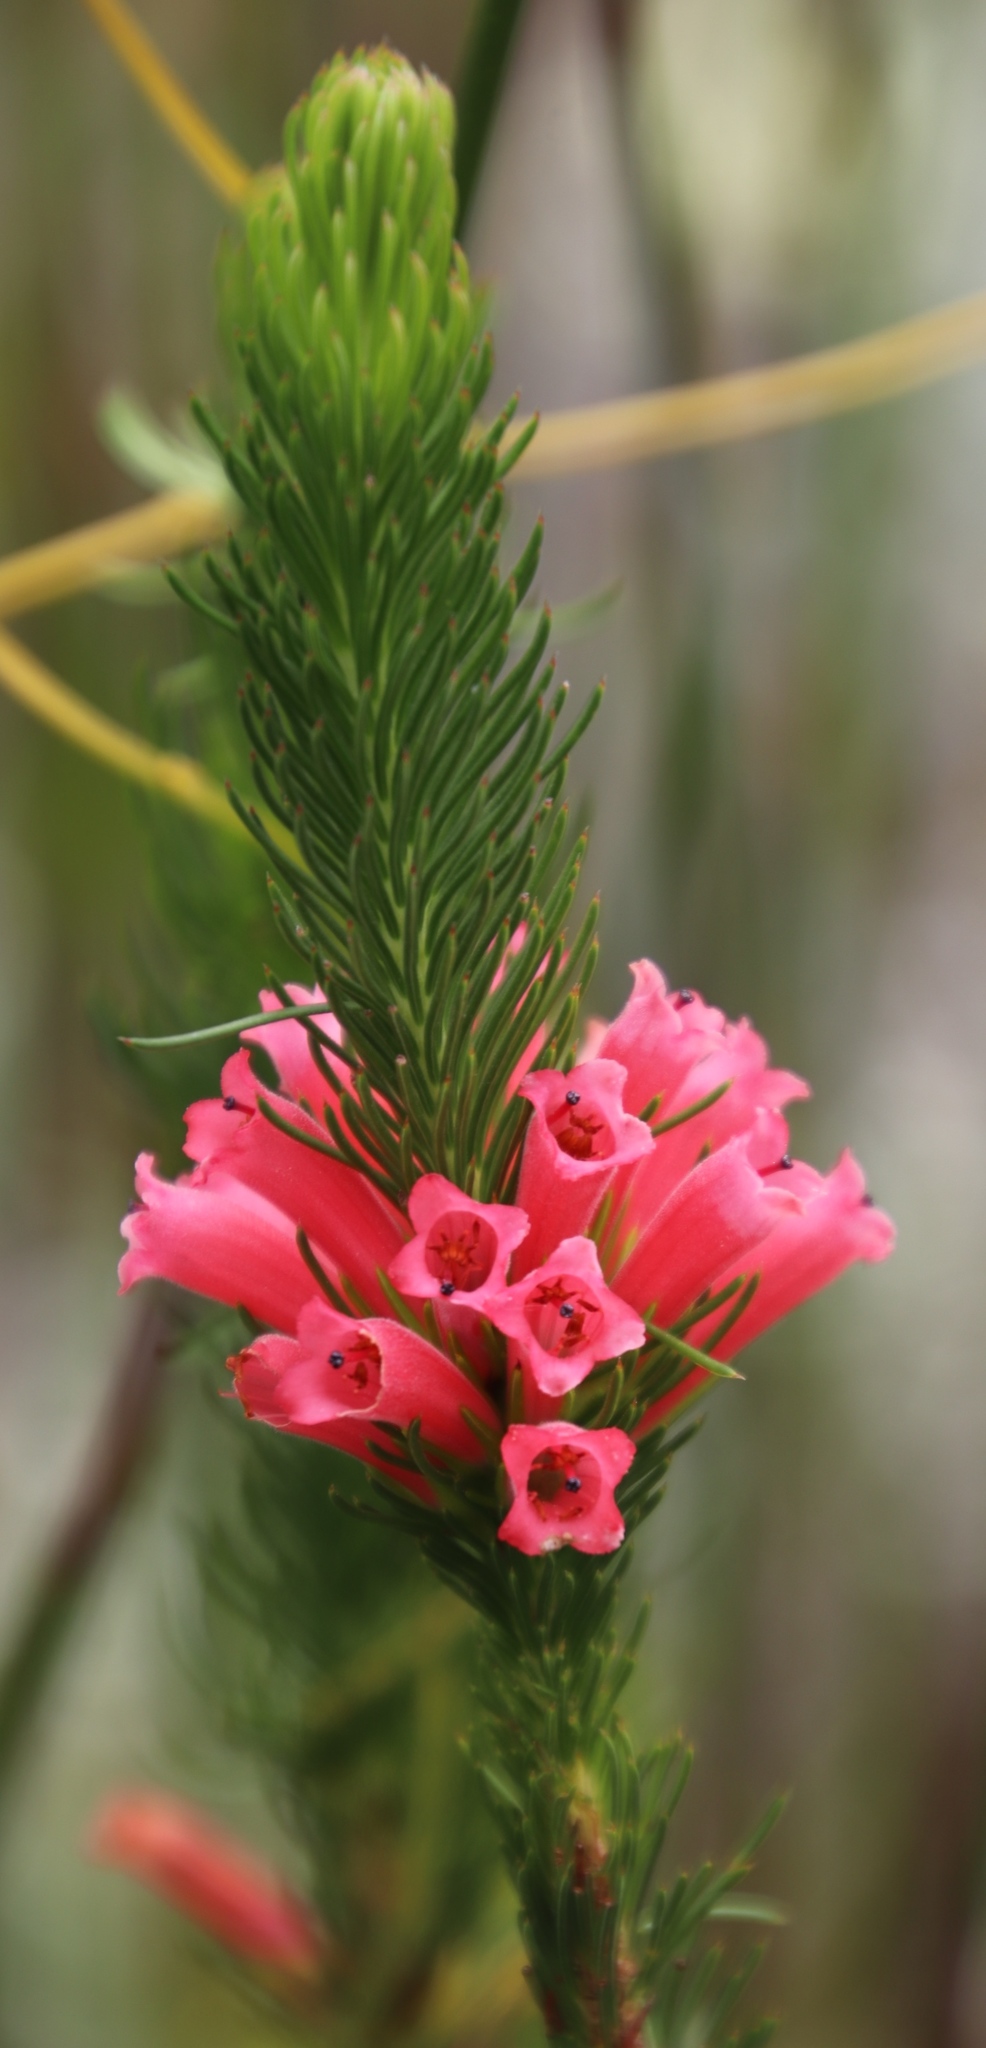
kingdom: Plantae
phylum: Tracheophyta
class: Magnoliopsida
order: Ericales
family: Ericaceae
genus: Erica
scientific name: Erica vestita
